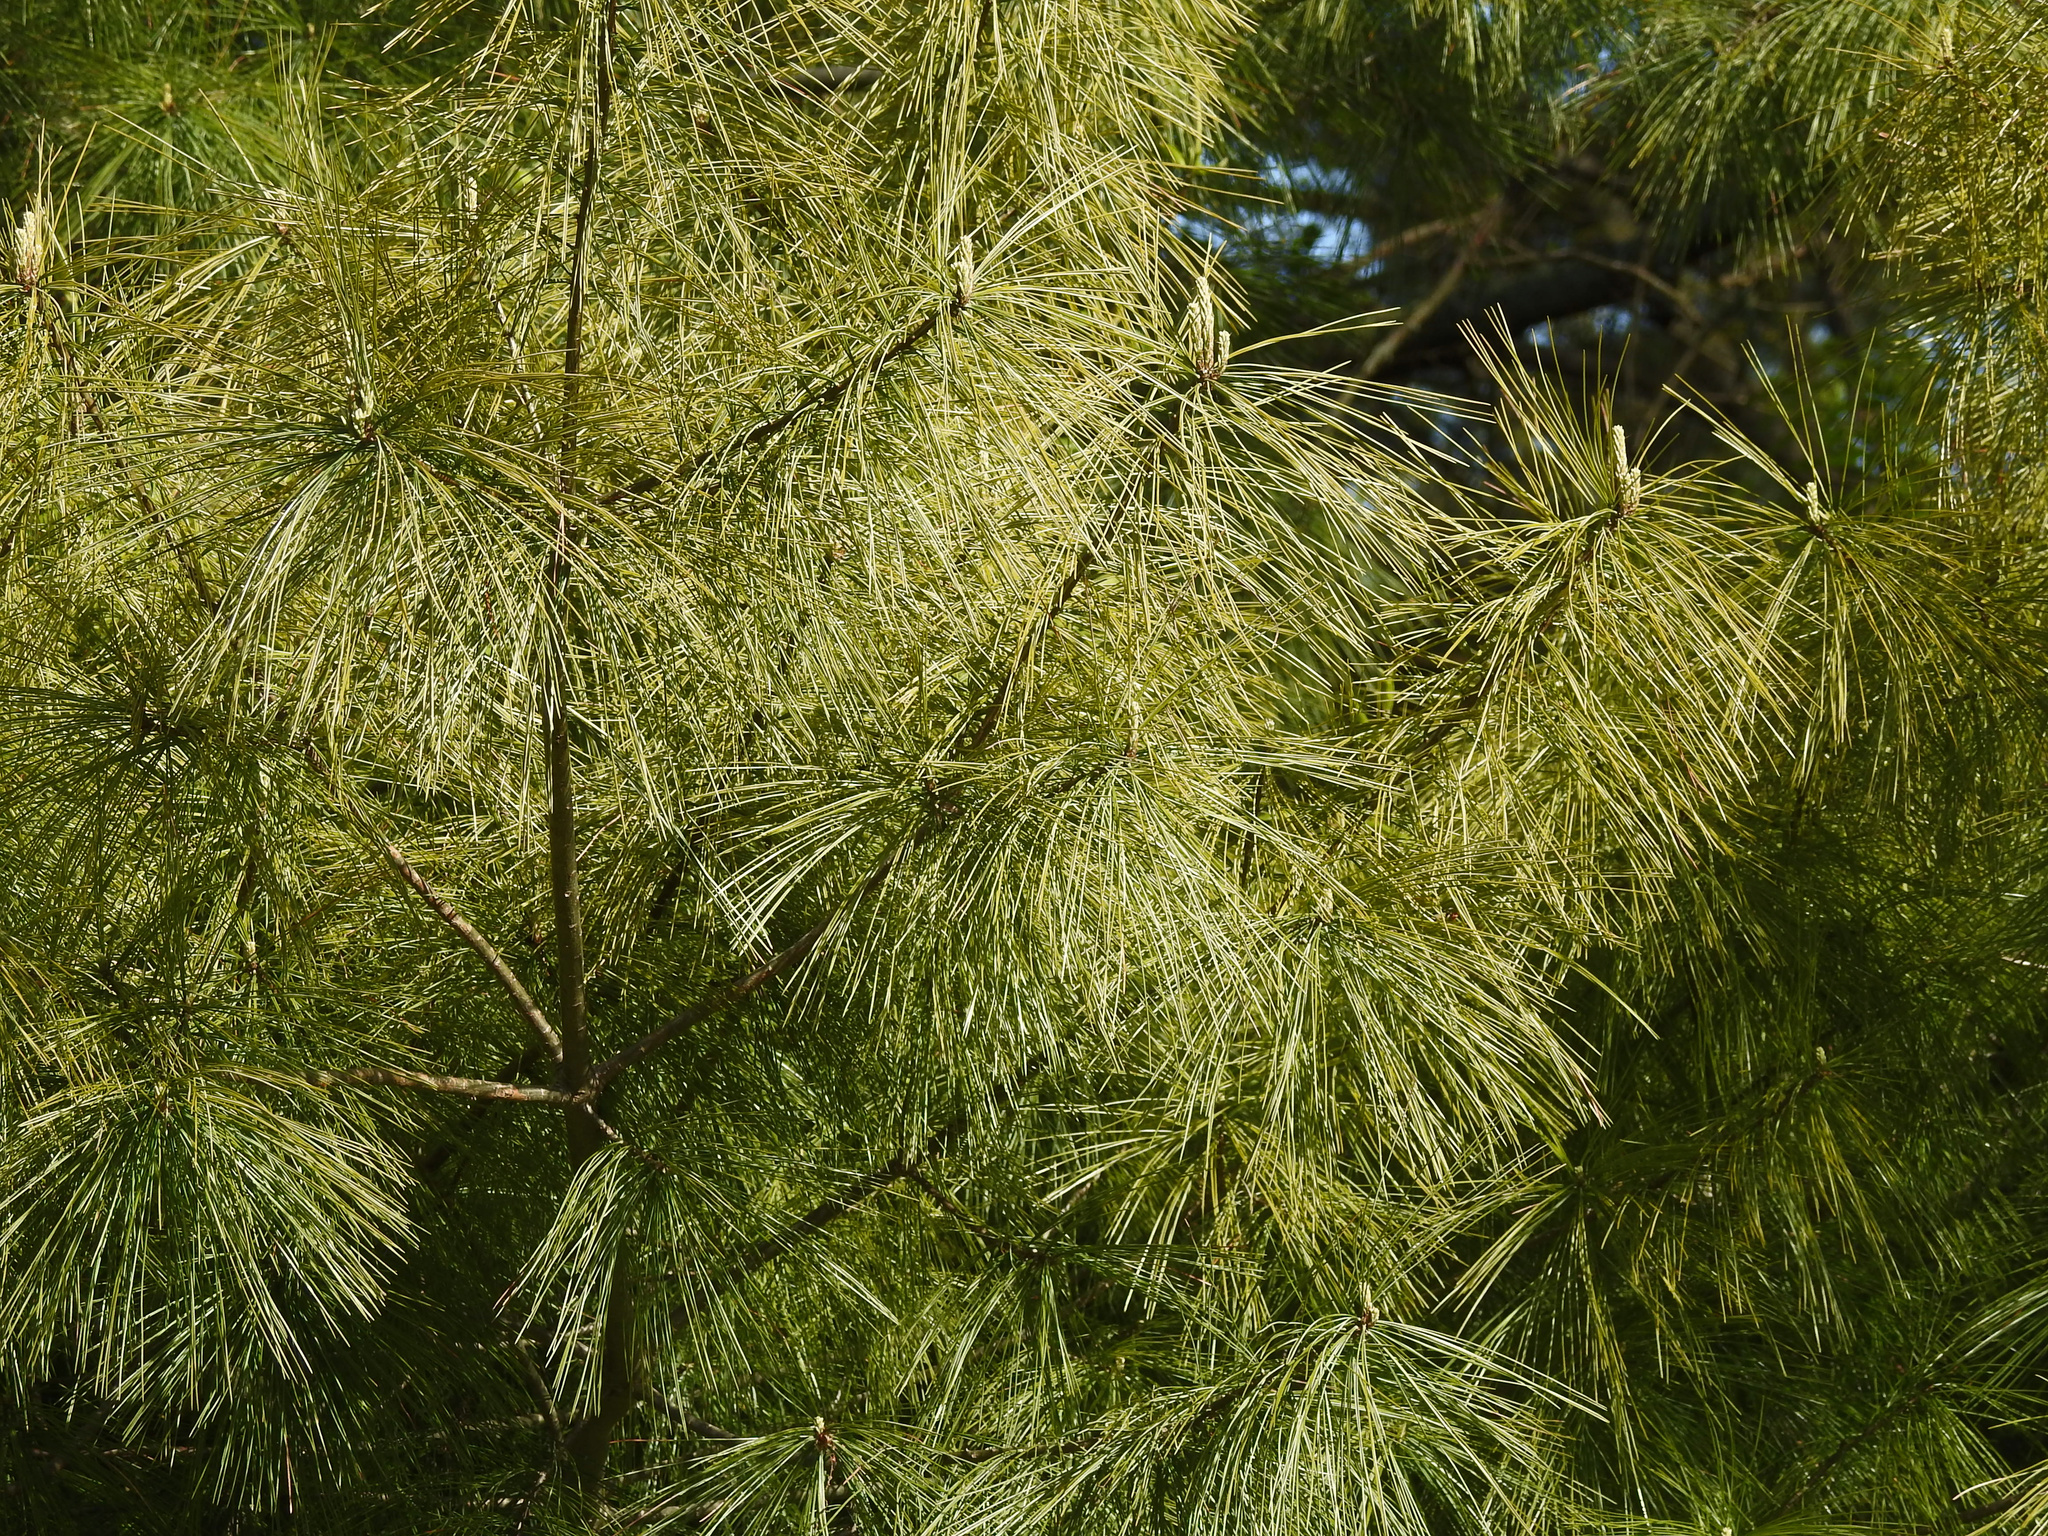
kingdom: Plantae
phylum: Tracheophyta
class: Pinopsida
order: Pinales
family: Pinaceae
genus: Pinus
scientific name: Pinus strobus
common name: Weymouth pine
